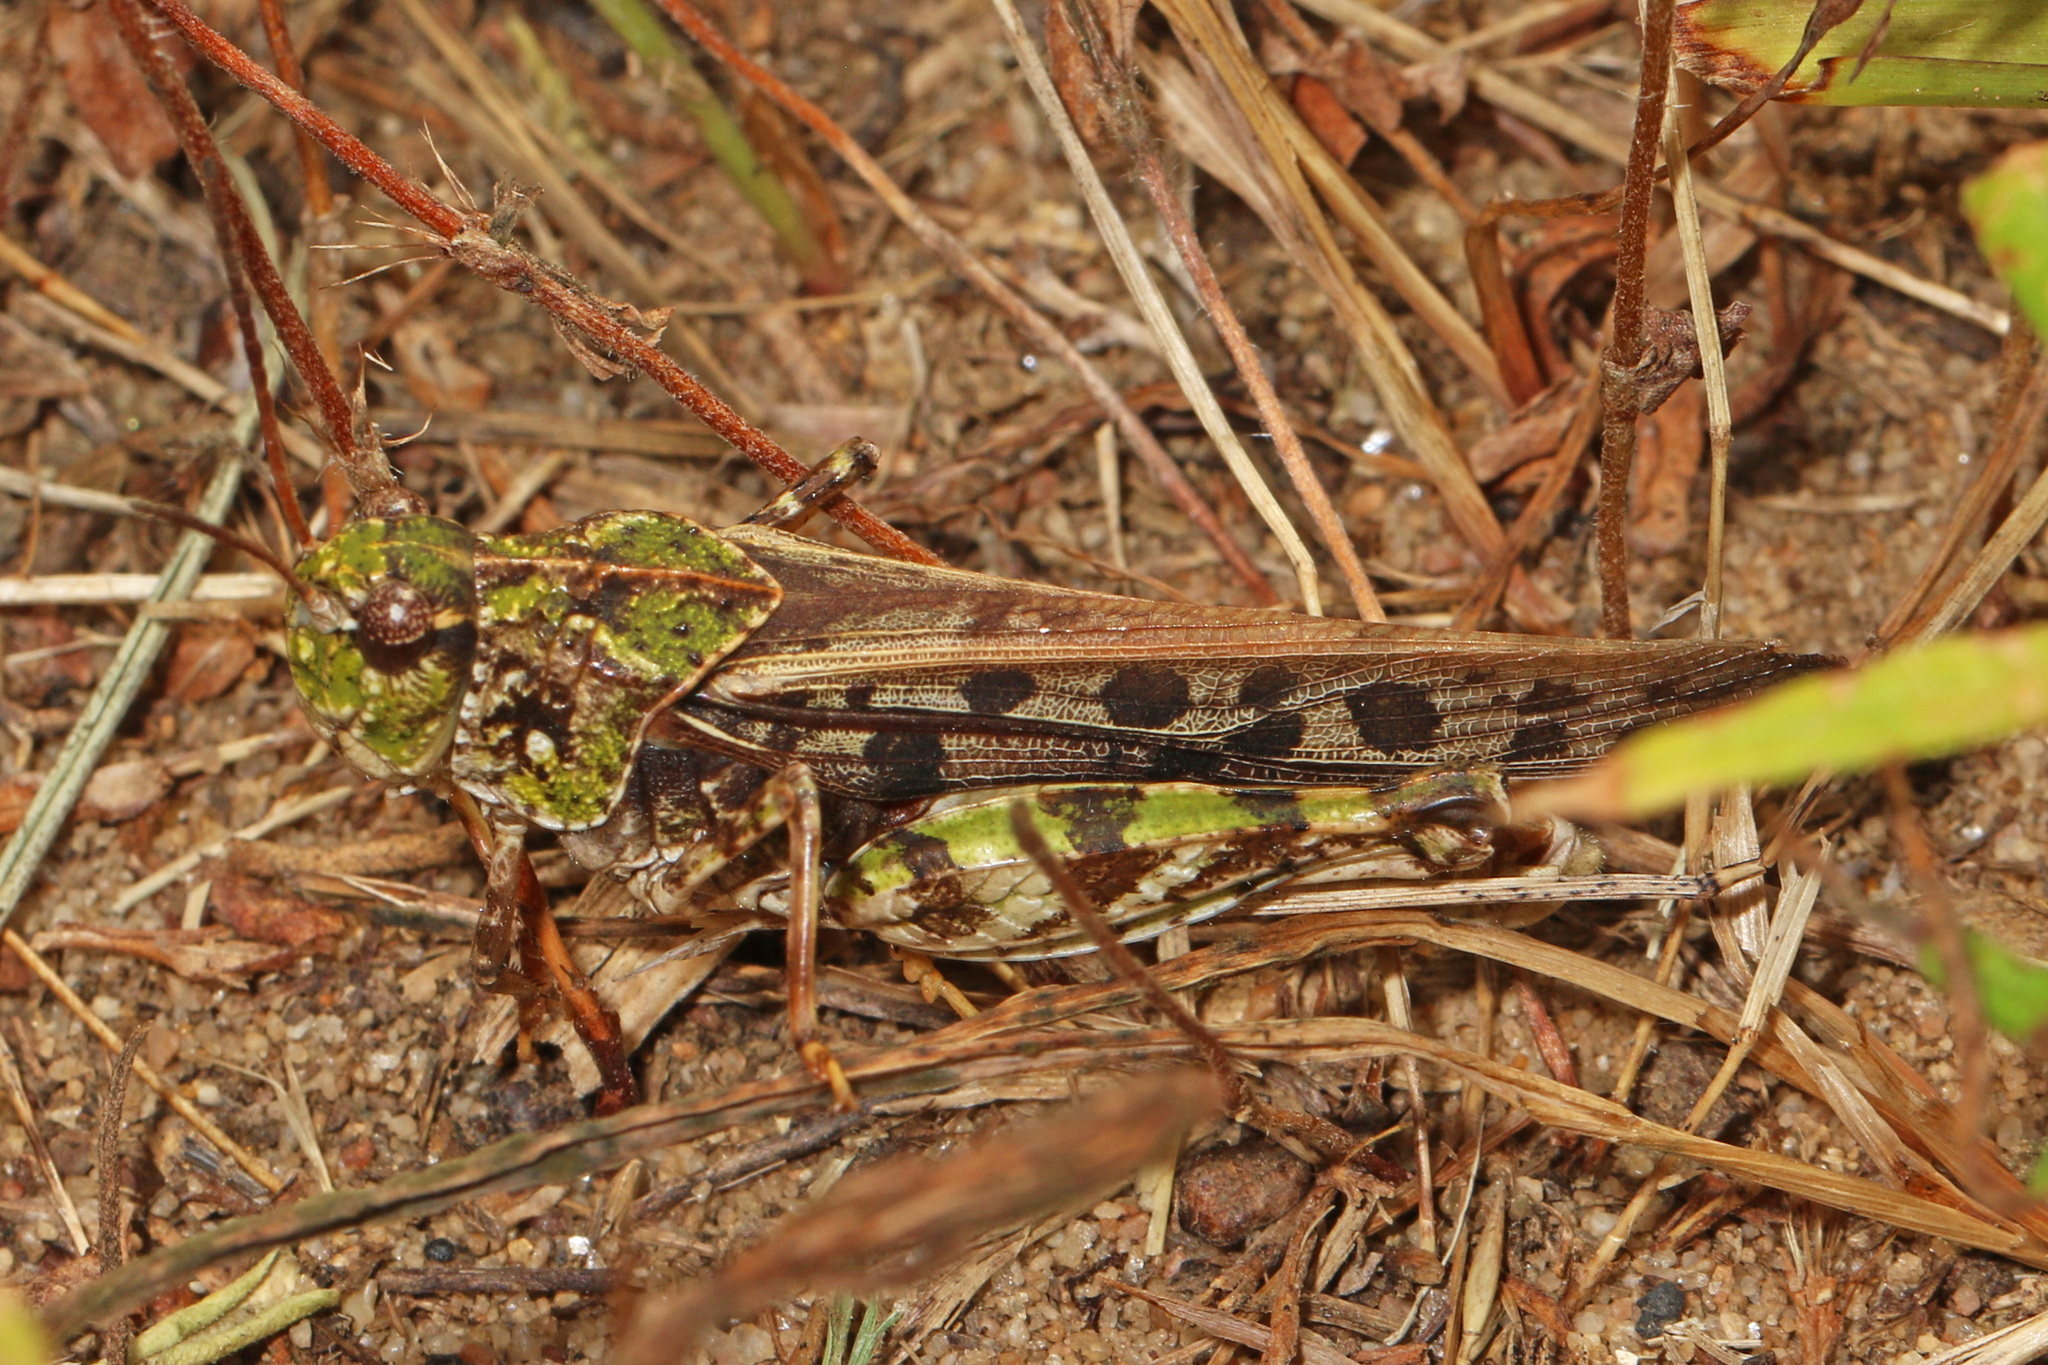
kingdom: Animalia
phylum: Arthropoda
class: Insecta
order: Orthoptera
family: Acrididae
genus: Pardalophora
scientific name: Pardalophora phoenicoptera
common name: Orange-winged grasshopper
